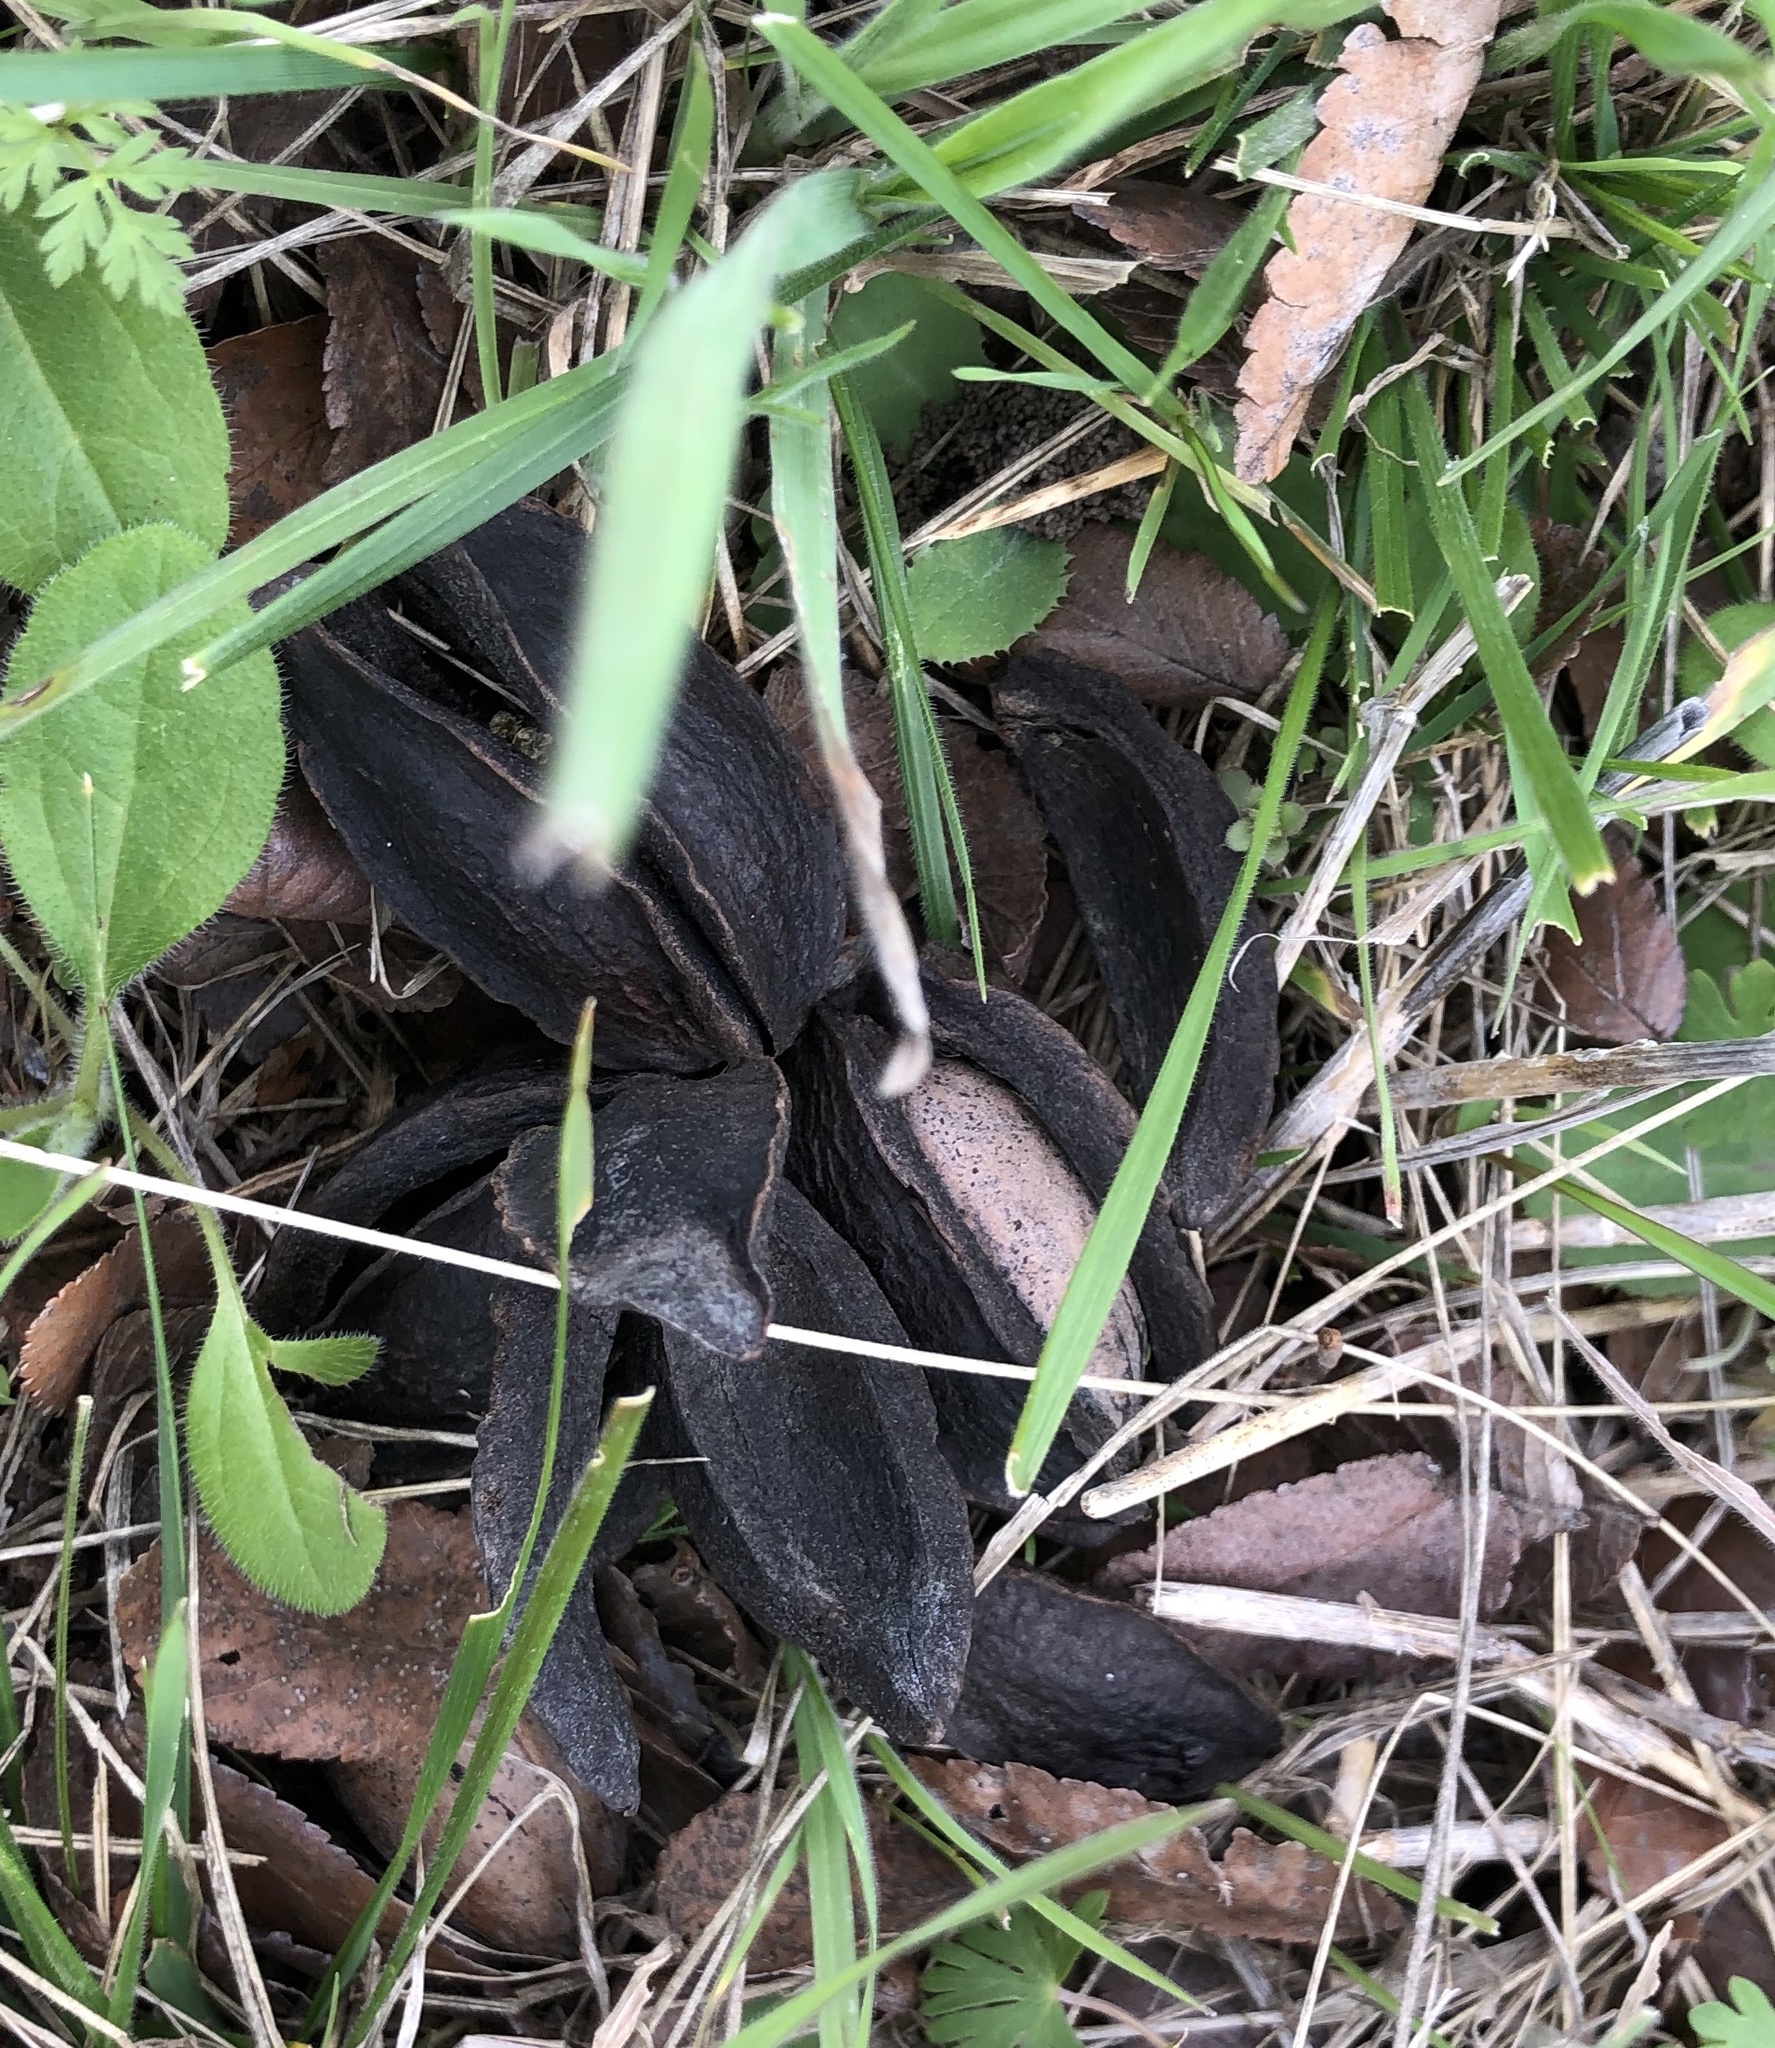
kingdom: Plantae
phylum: Tracheophyta
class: Magnoliopsida
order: Fagales
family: Juglandaceae
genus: Carya
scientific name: Carya illinoinensis
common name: Pecan
